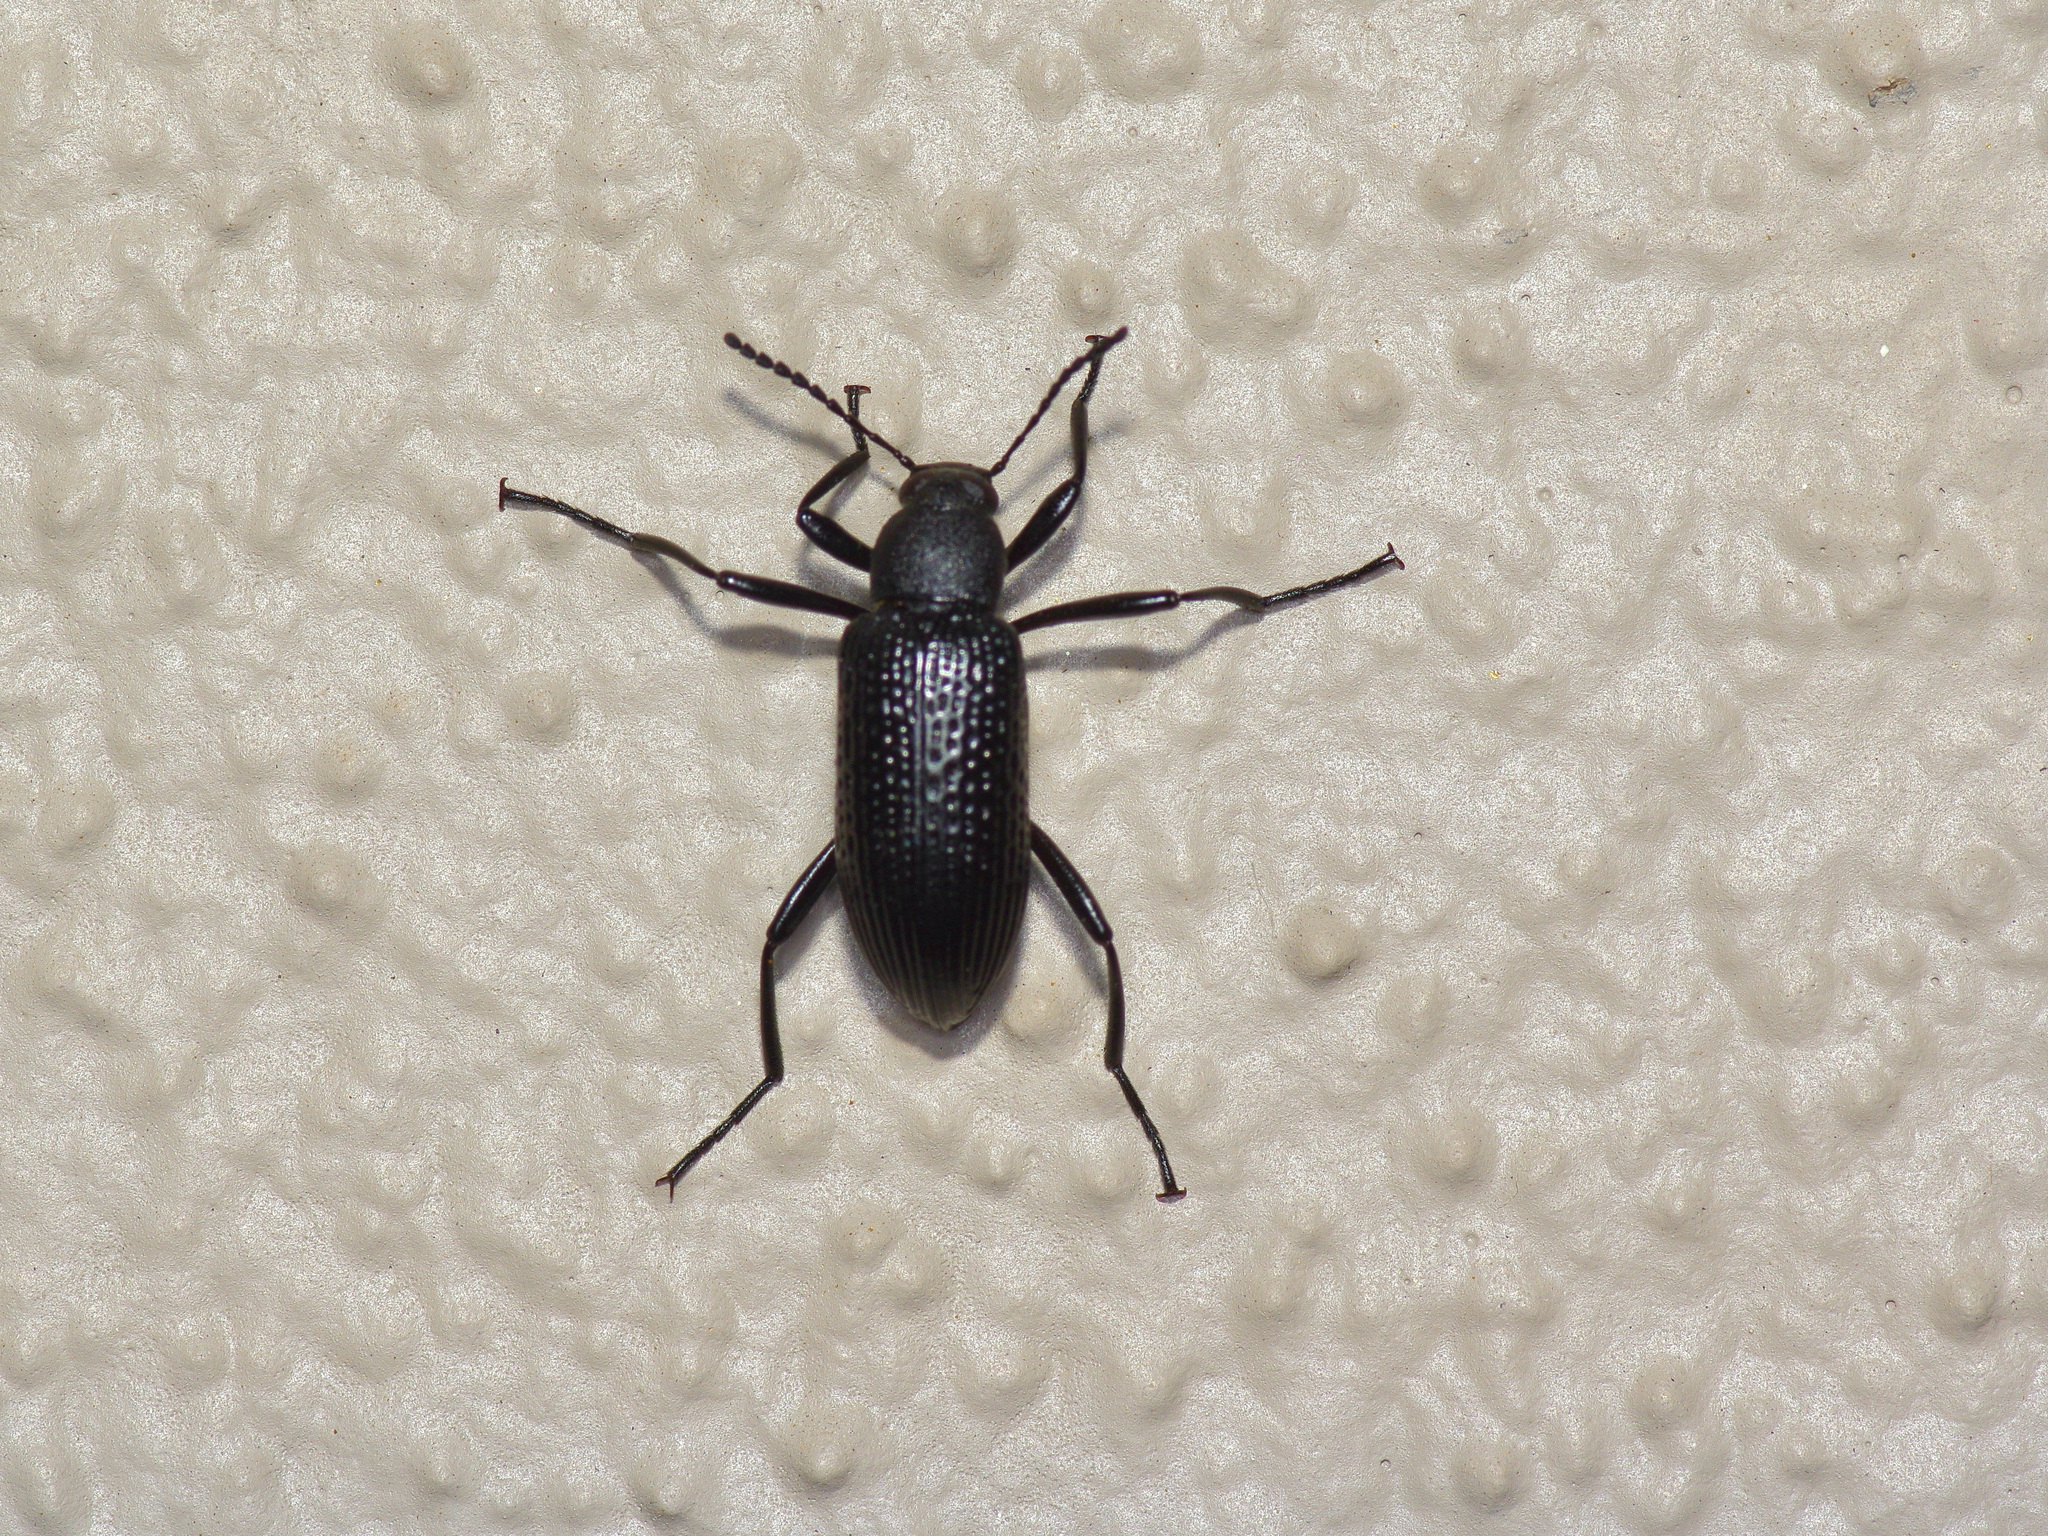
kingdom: Animalia
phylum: Arthropoda
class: Insecta
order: Coleoptera
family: Tenebrionidae
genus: Strongylium
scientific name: Strongylium hemistriatum
